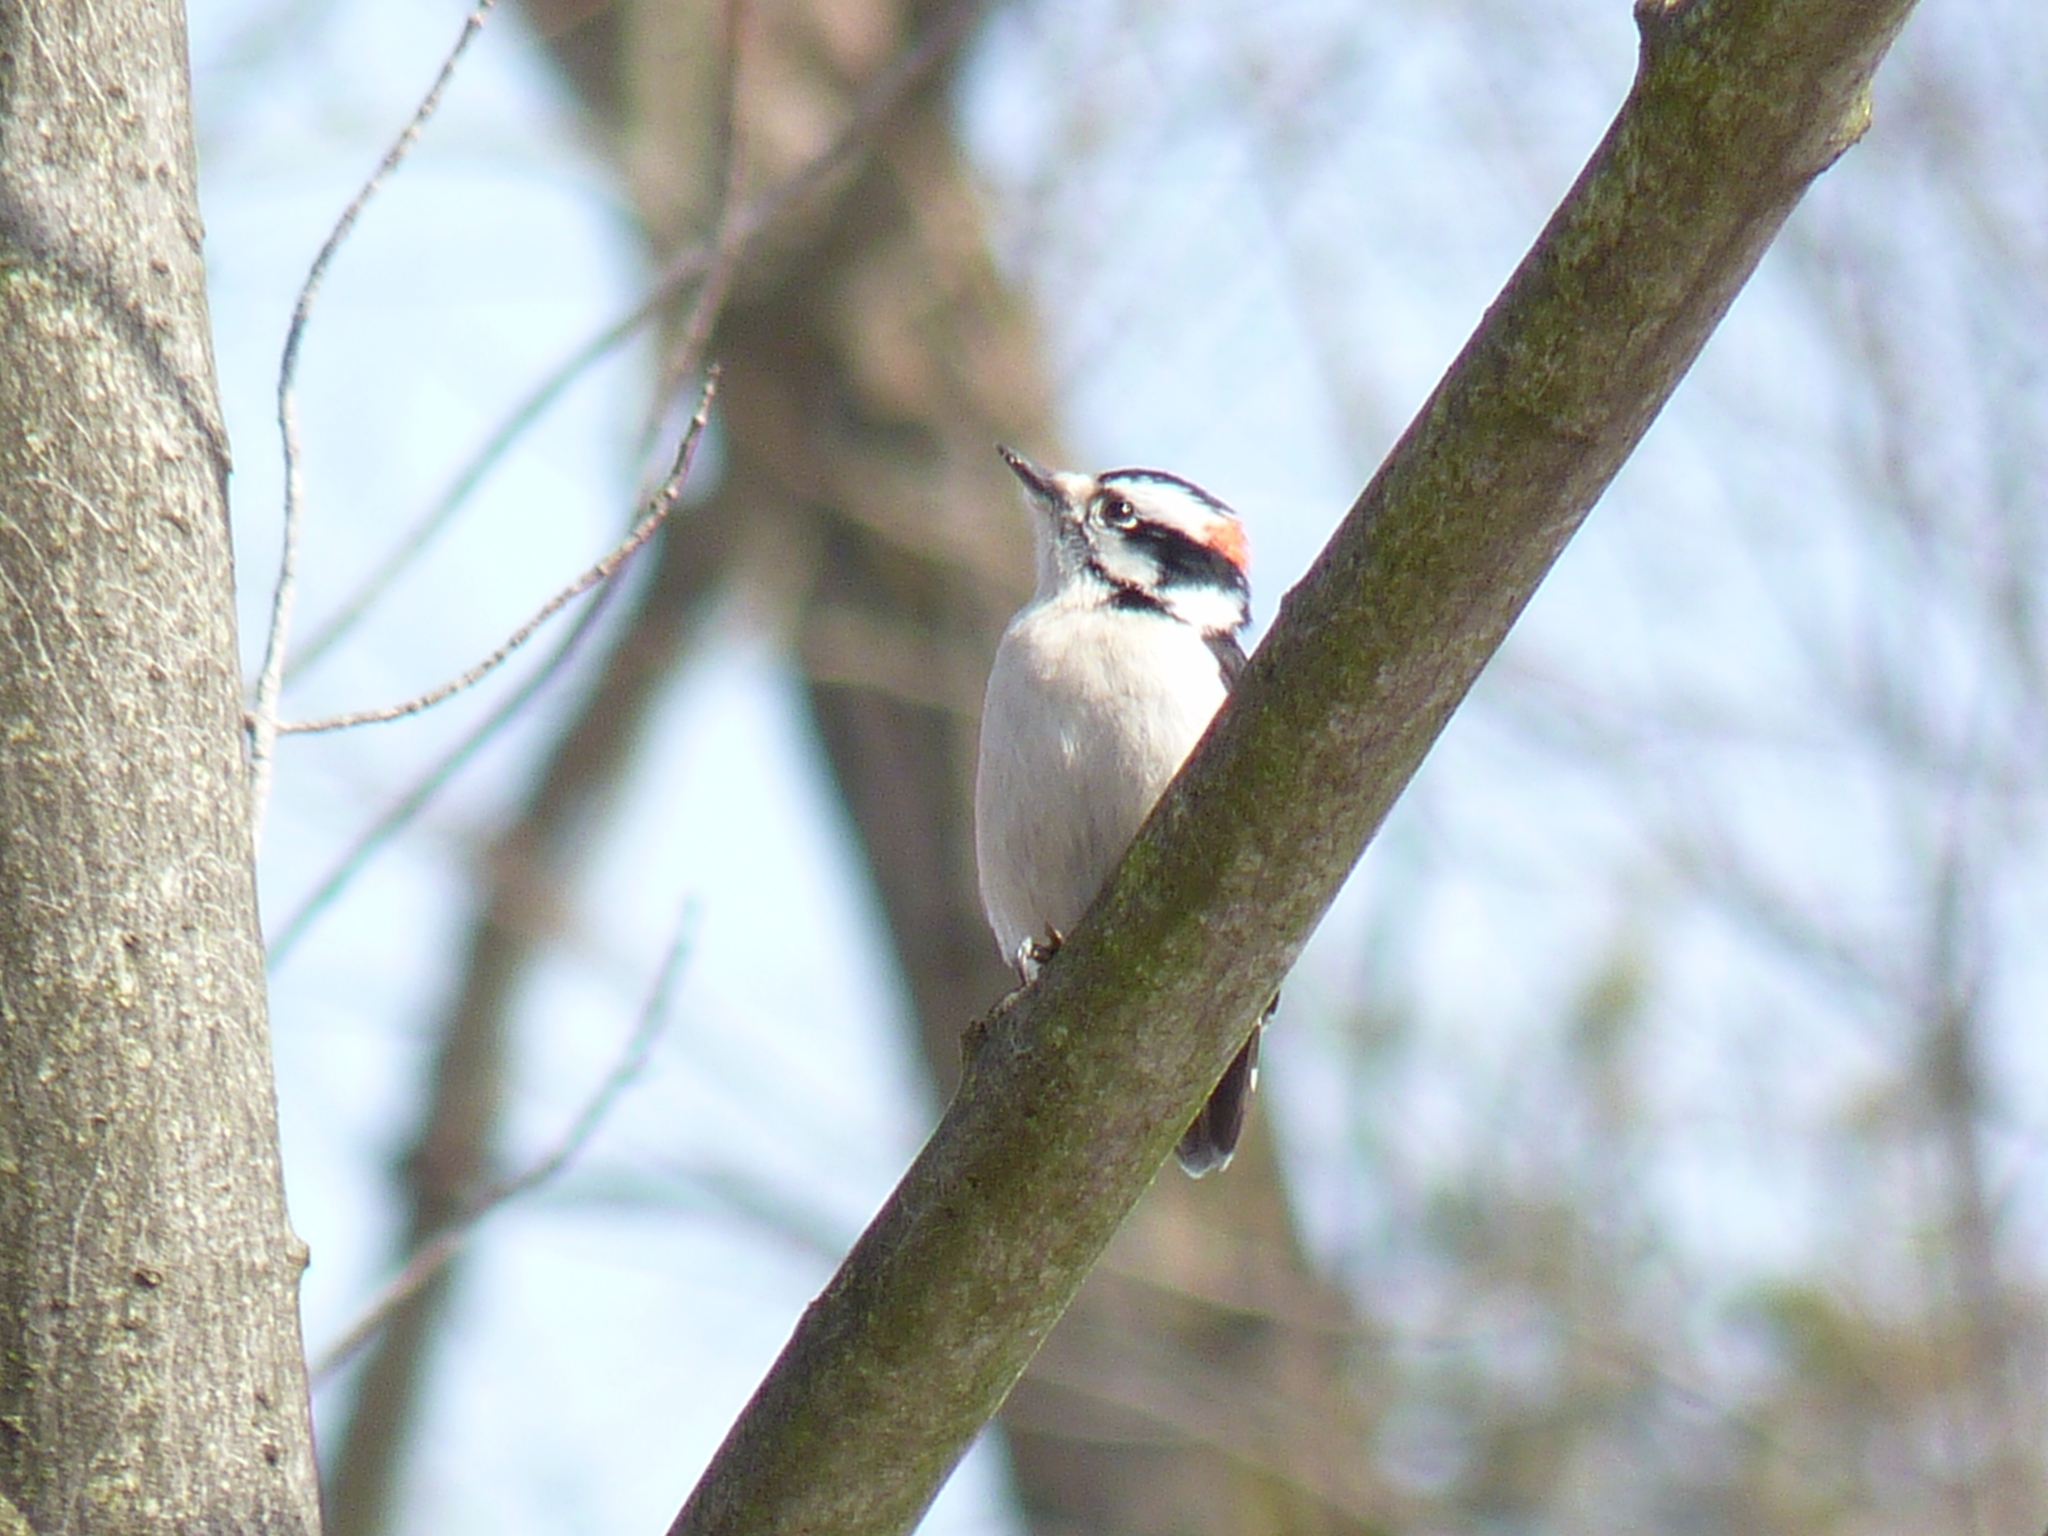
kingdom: Animalia
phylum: Chordata
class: Aves
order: Piciformes
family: Picidae
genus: Dryobates
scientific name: Dryobates pubescens
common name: Downy woodpecker
